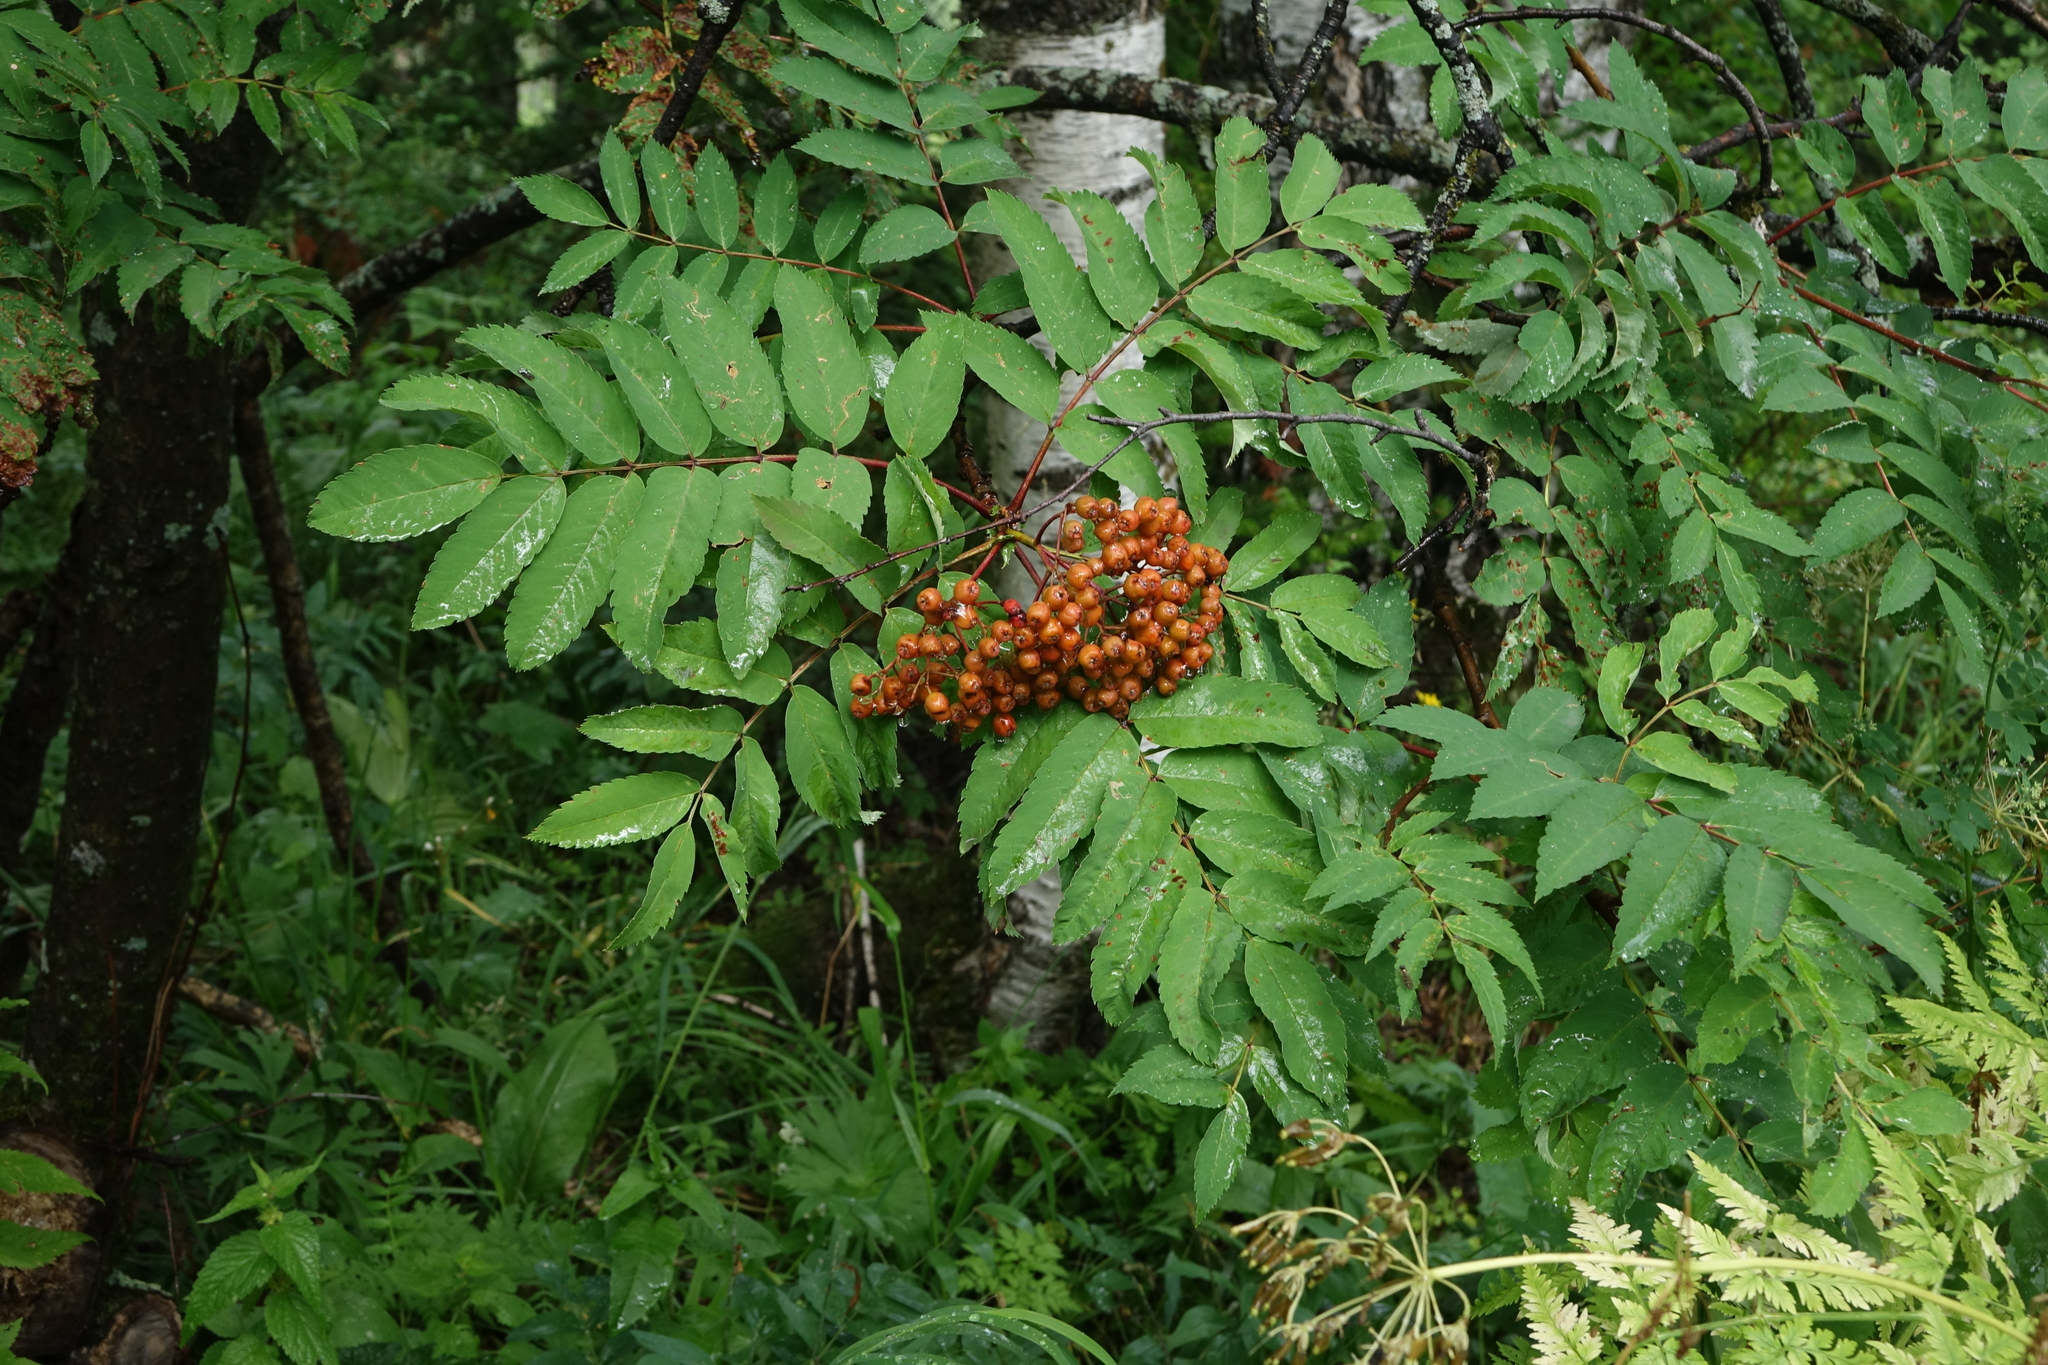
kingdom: Plantae
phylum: Tracheophyta
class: Magnoliopsida
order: Rosales
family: Rosaceae
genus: Sorbus
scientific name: Sorbus aucuparia
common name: Rowan
